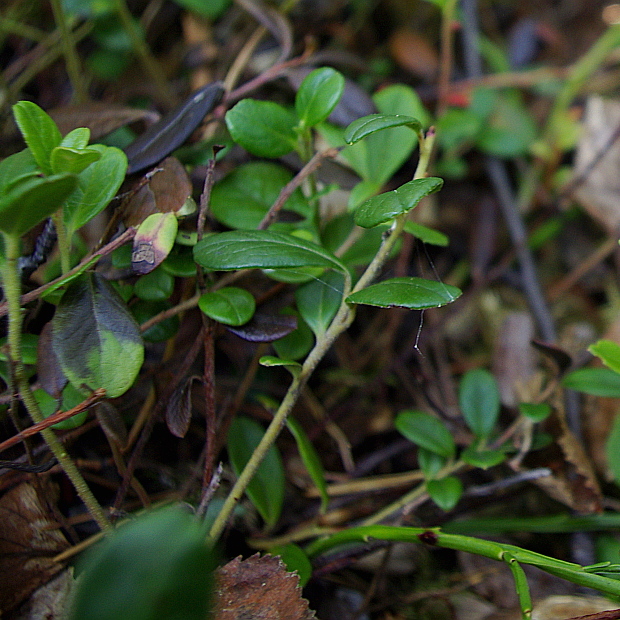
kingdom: Plantae
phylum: Tracheophyta
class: Magnoliopsida
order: Ericales
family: Ericaceae
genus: Vaccinium
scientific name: Vaccinium vitis-idaea
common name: Cowberry
